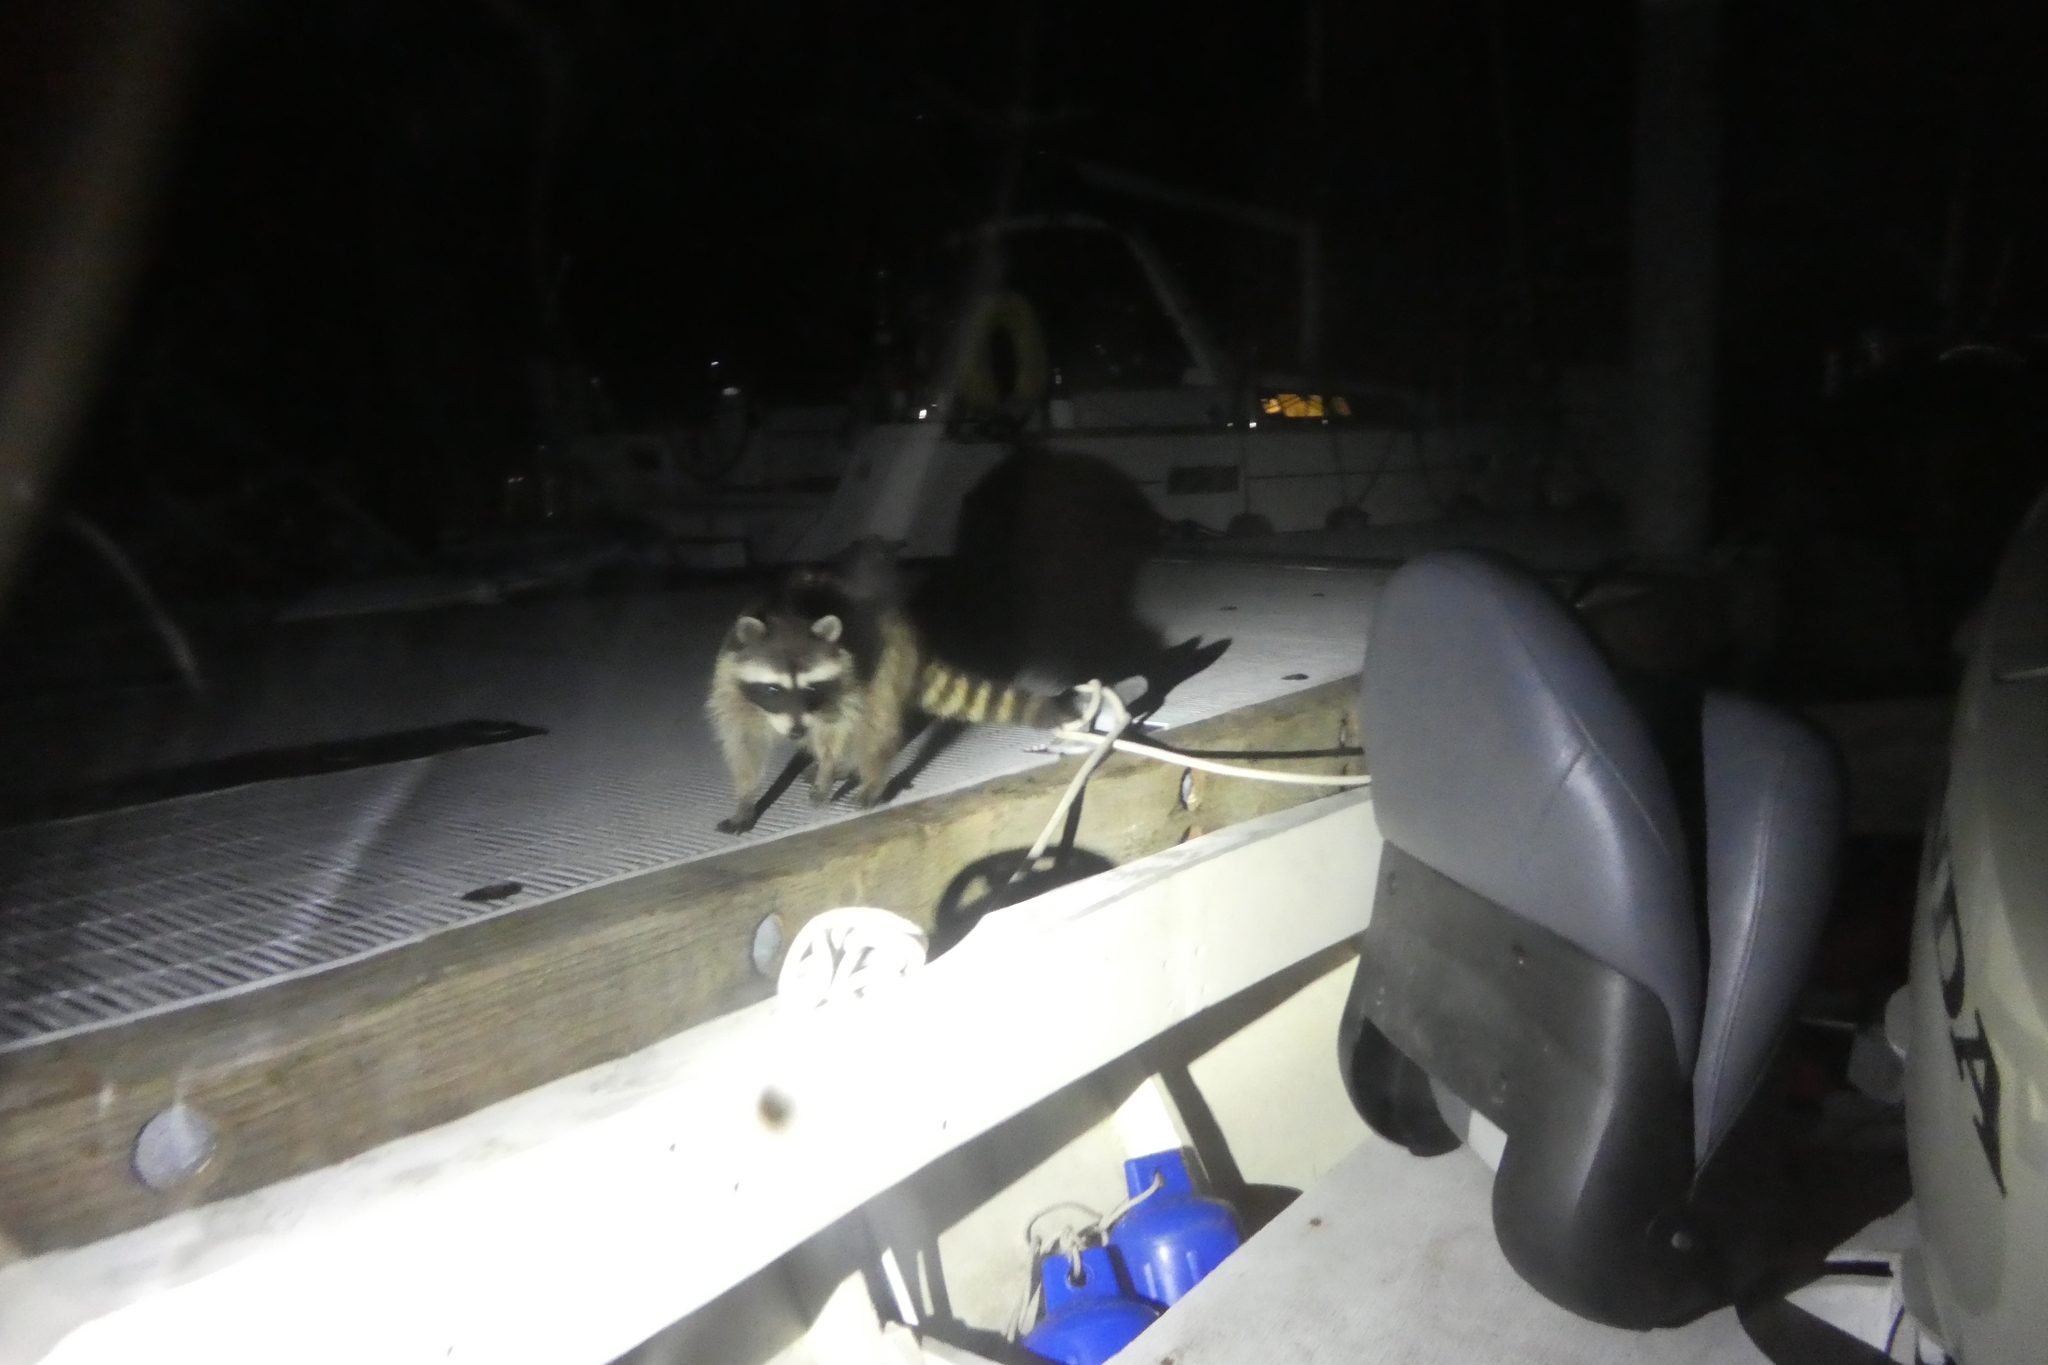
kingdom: Animalia
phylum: Chordata
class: Mammalia
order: Carnivora
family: Procyonidae
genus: Procyon
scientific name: Procyon lotor
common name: Raccoon
